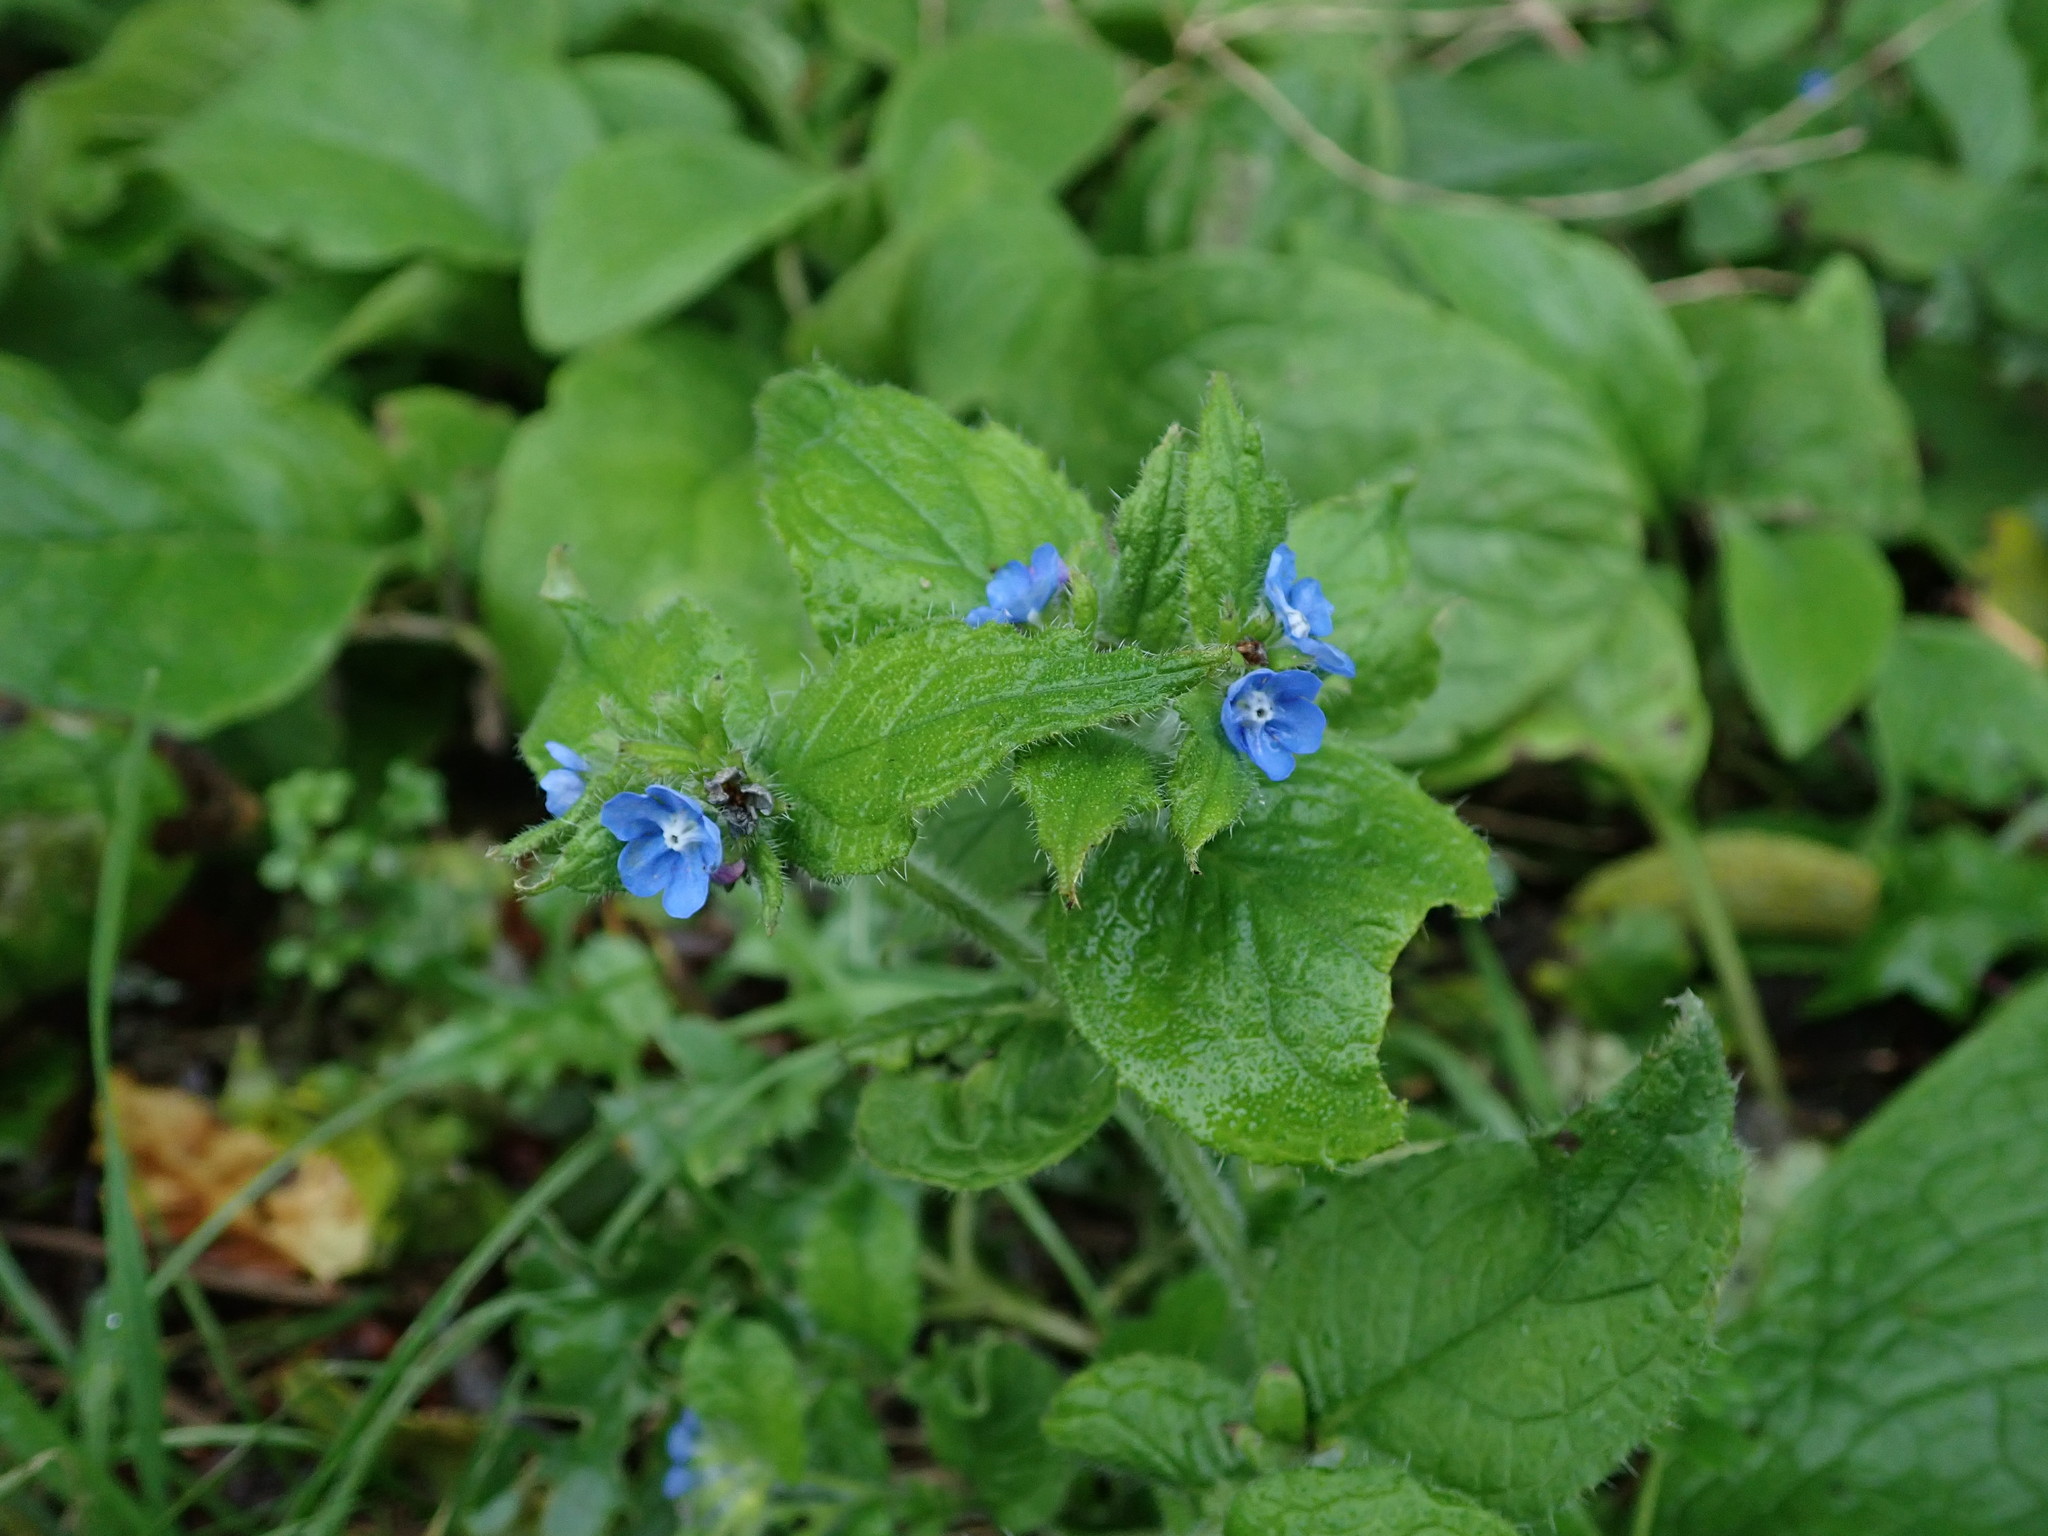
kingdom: Plantae
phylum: Tracheophyta
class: Magnoliopsida
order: Boraginales
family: Boraginaceae
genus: Pentaglottis
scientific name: Pentaglottis sempervirens
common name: Green alkanet
